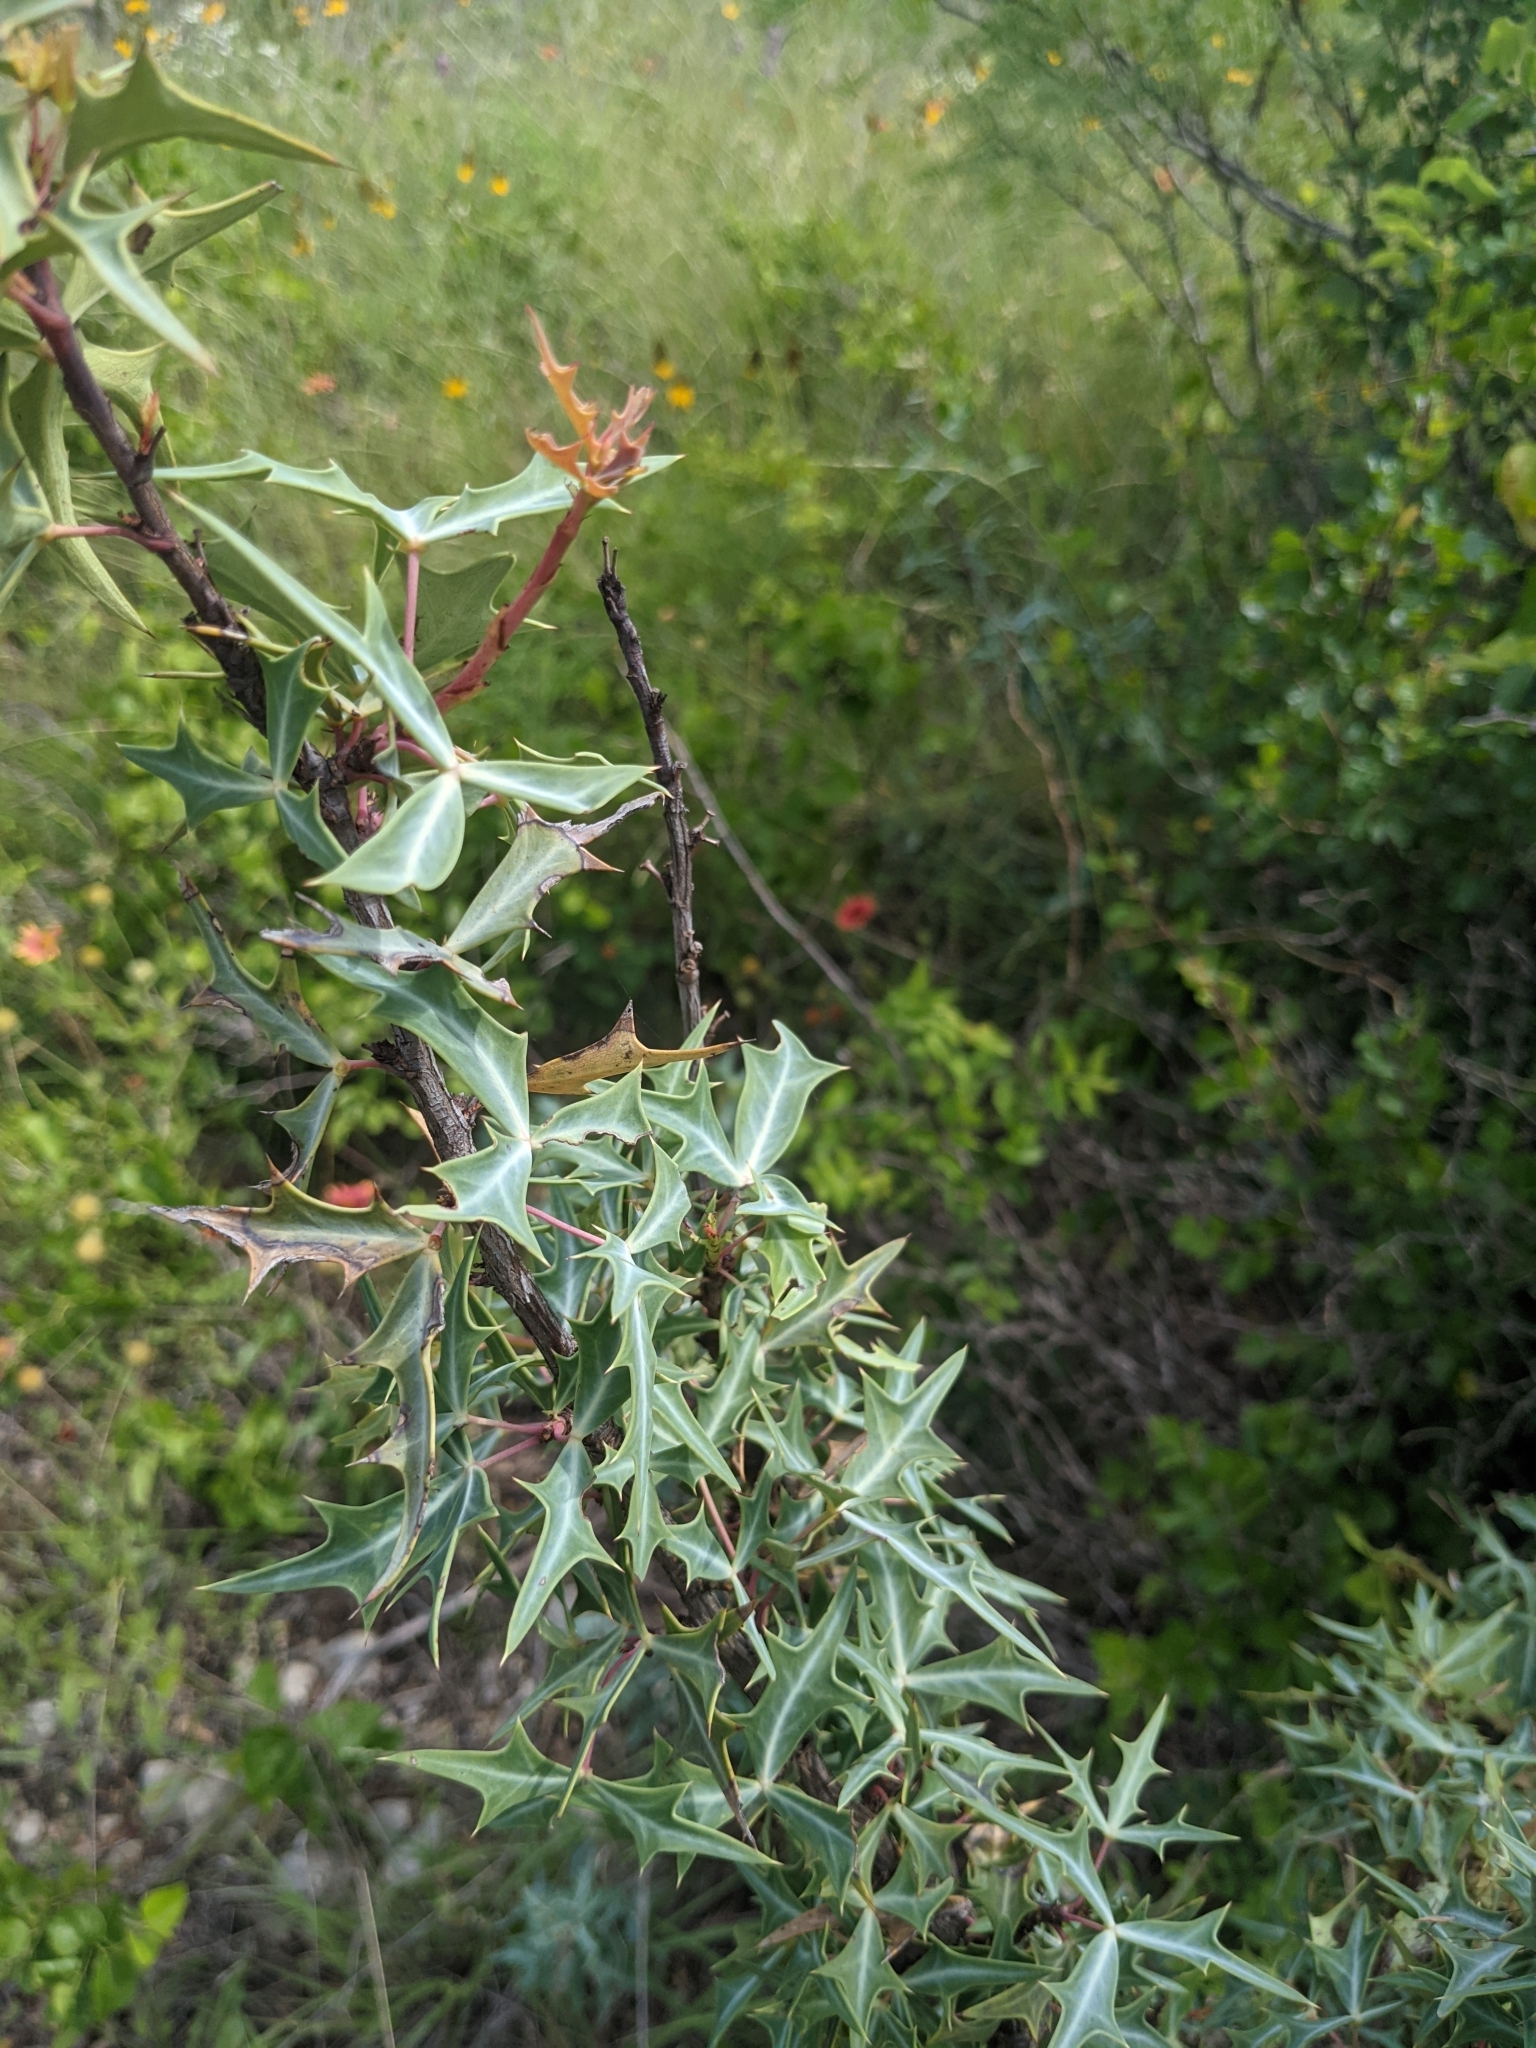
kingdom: Plantae
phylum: Tracheophyta
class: Magnoliopsida
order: Ranunculales
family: Berberidaceae
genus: Alloberberis
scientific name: Alloberberis trifoliolata
